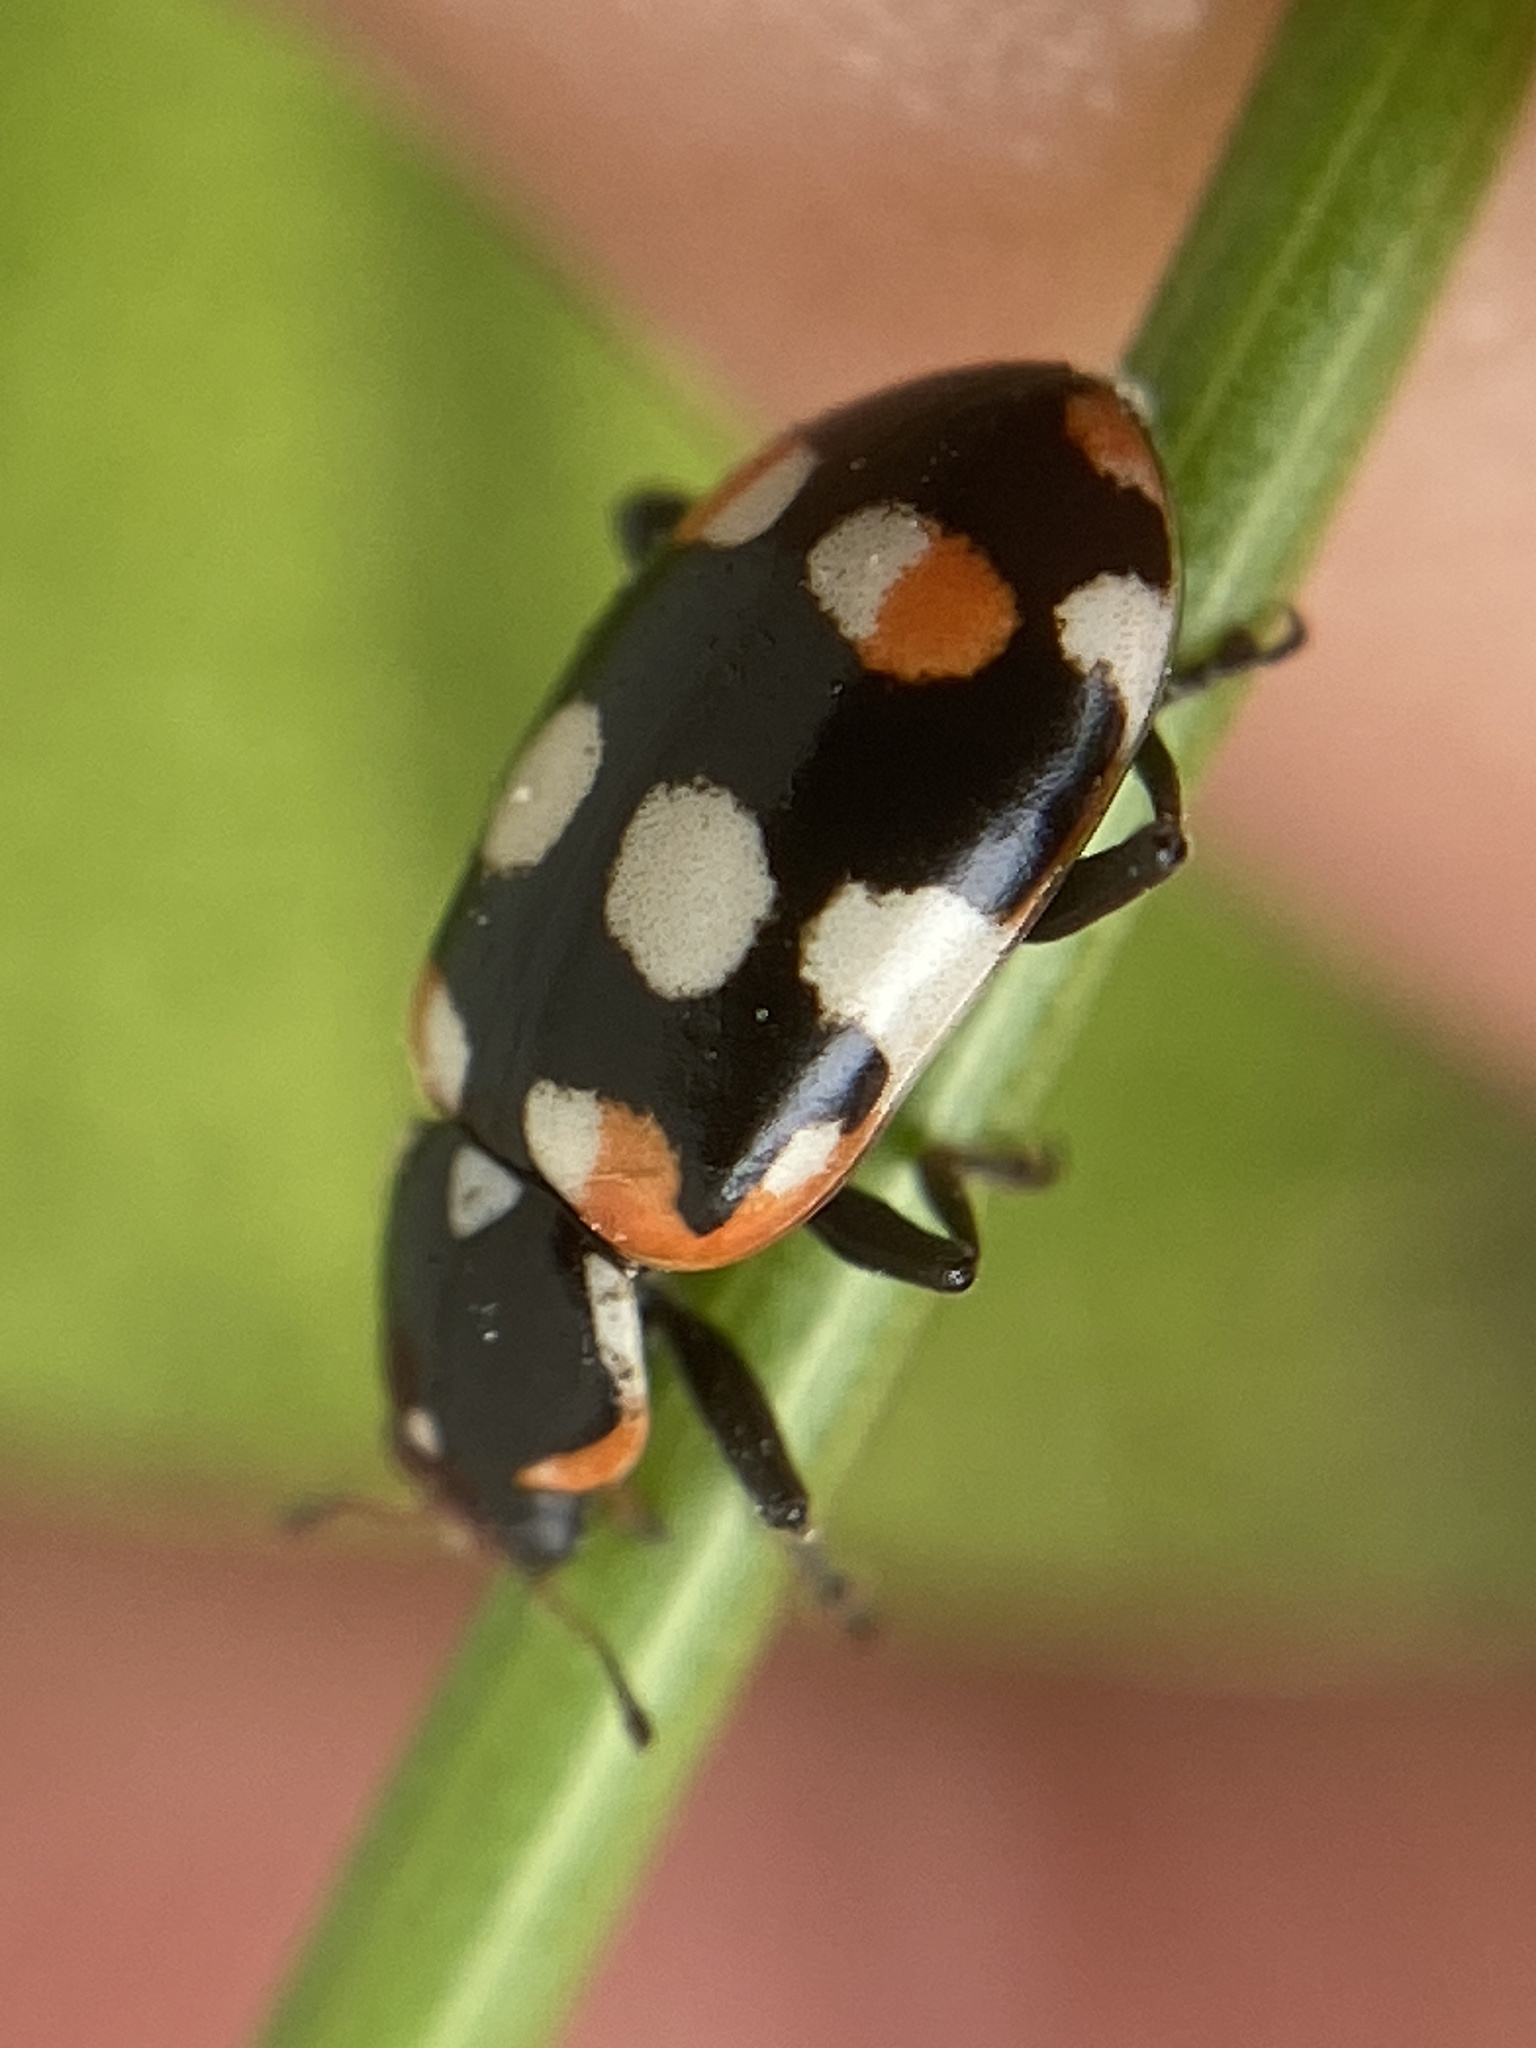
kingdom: Animalia
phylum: Arthropoda
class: Insecta
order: Coleoptera
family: Coccinellidae
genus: Eriopis
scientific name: Eriopis connexa
